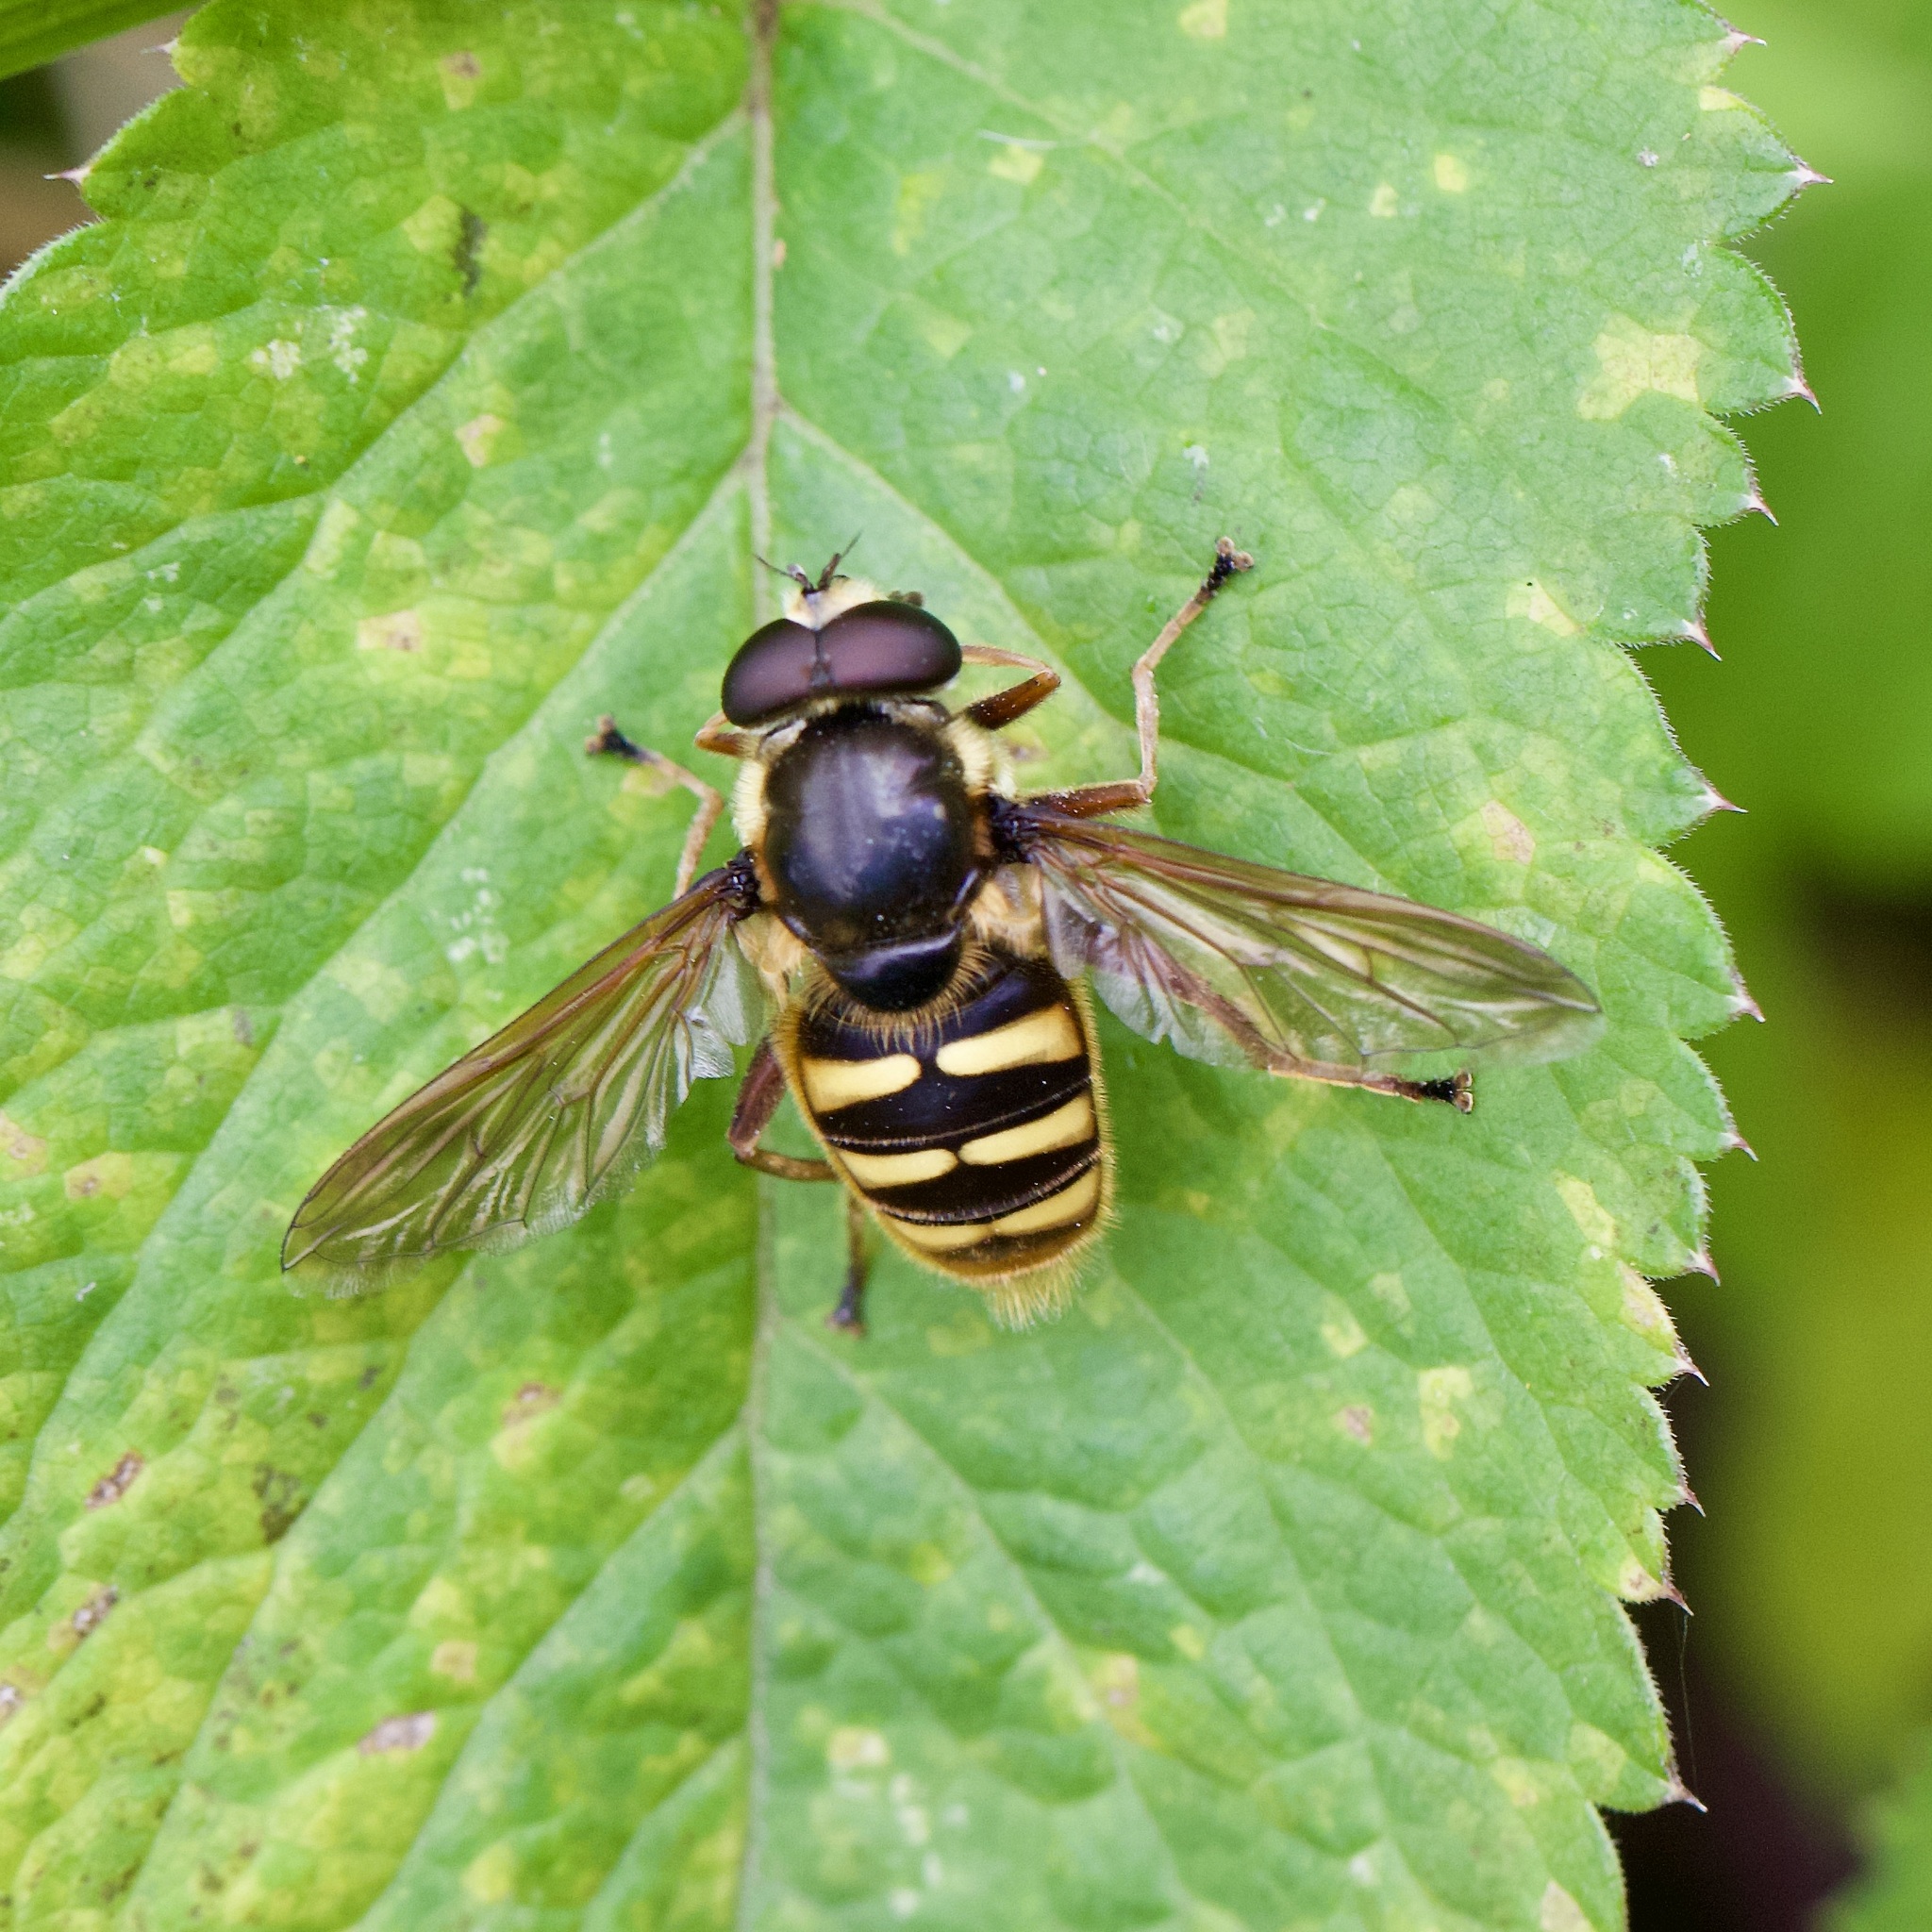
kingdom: Animalia
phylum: Arthropoda
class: Insecta
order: Diptera
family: Syrphidae
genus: Sericomyia
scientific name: Sericomyia silentis
